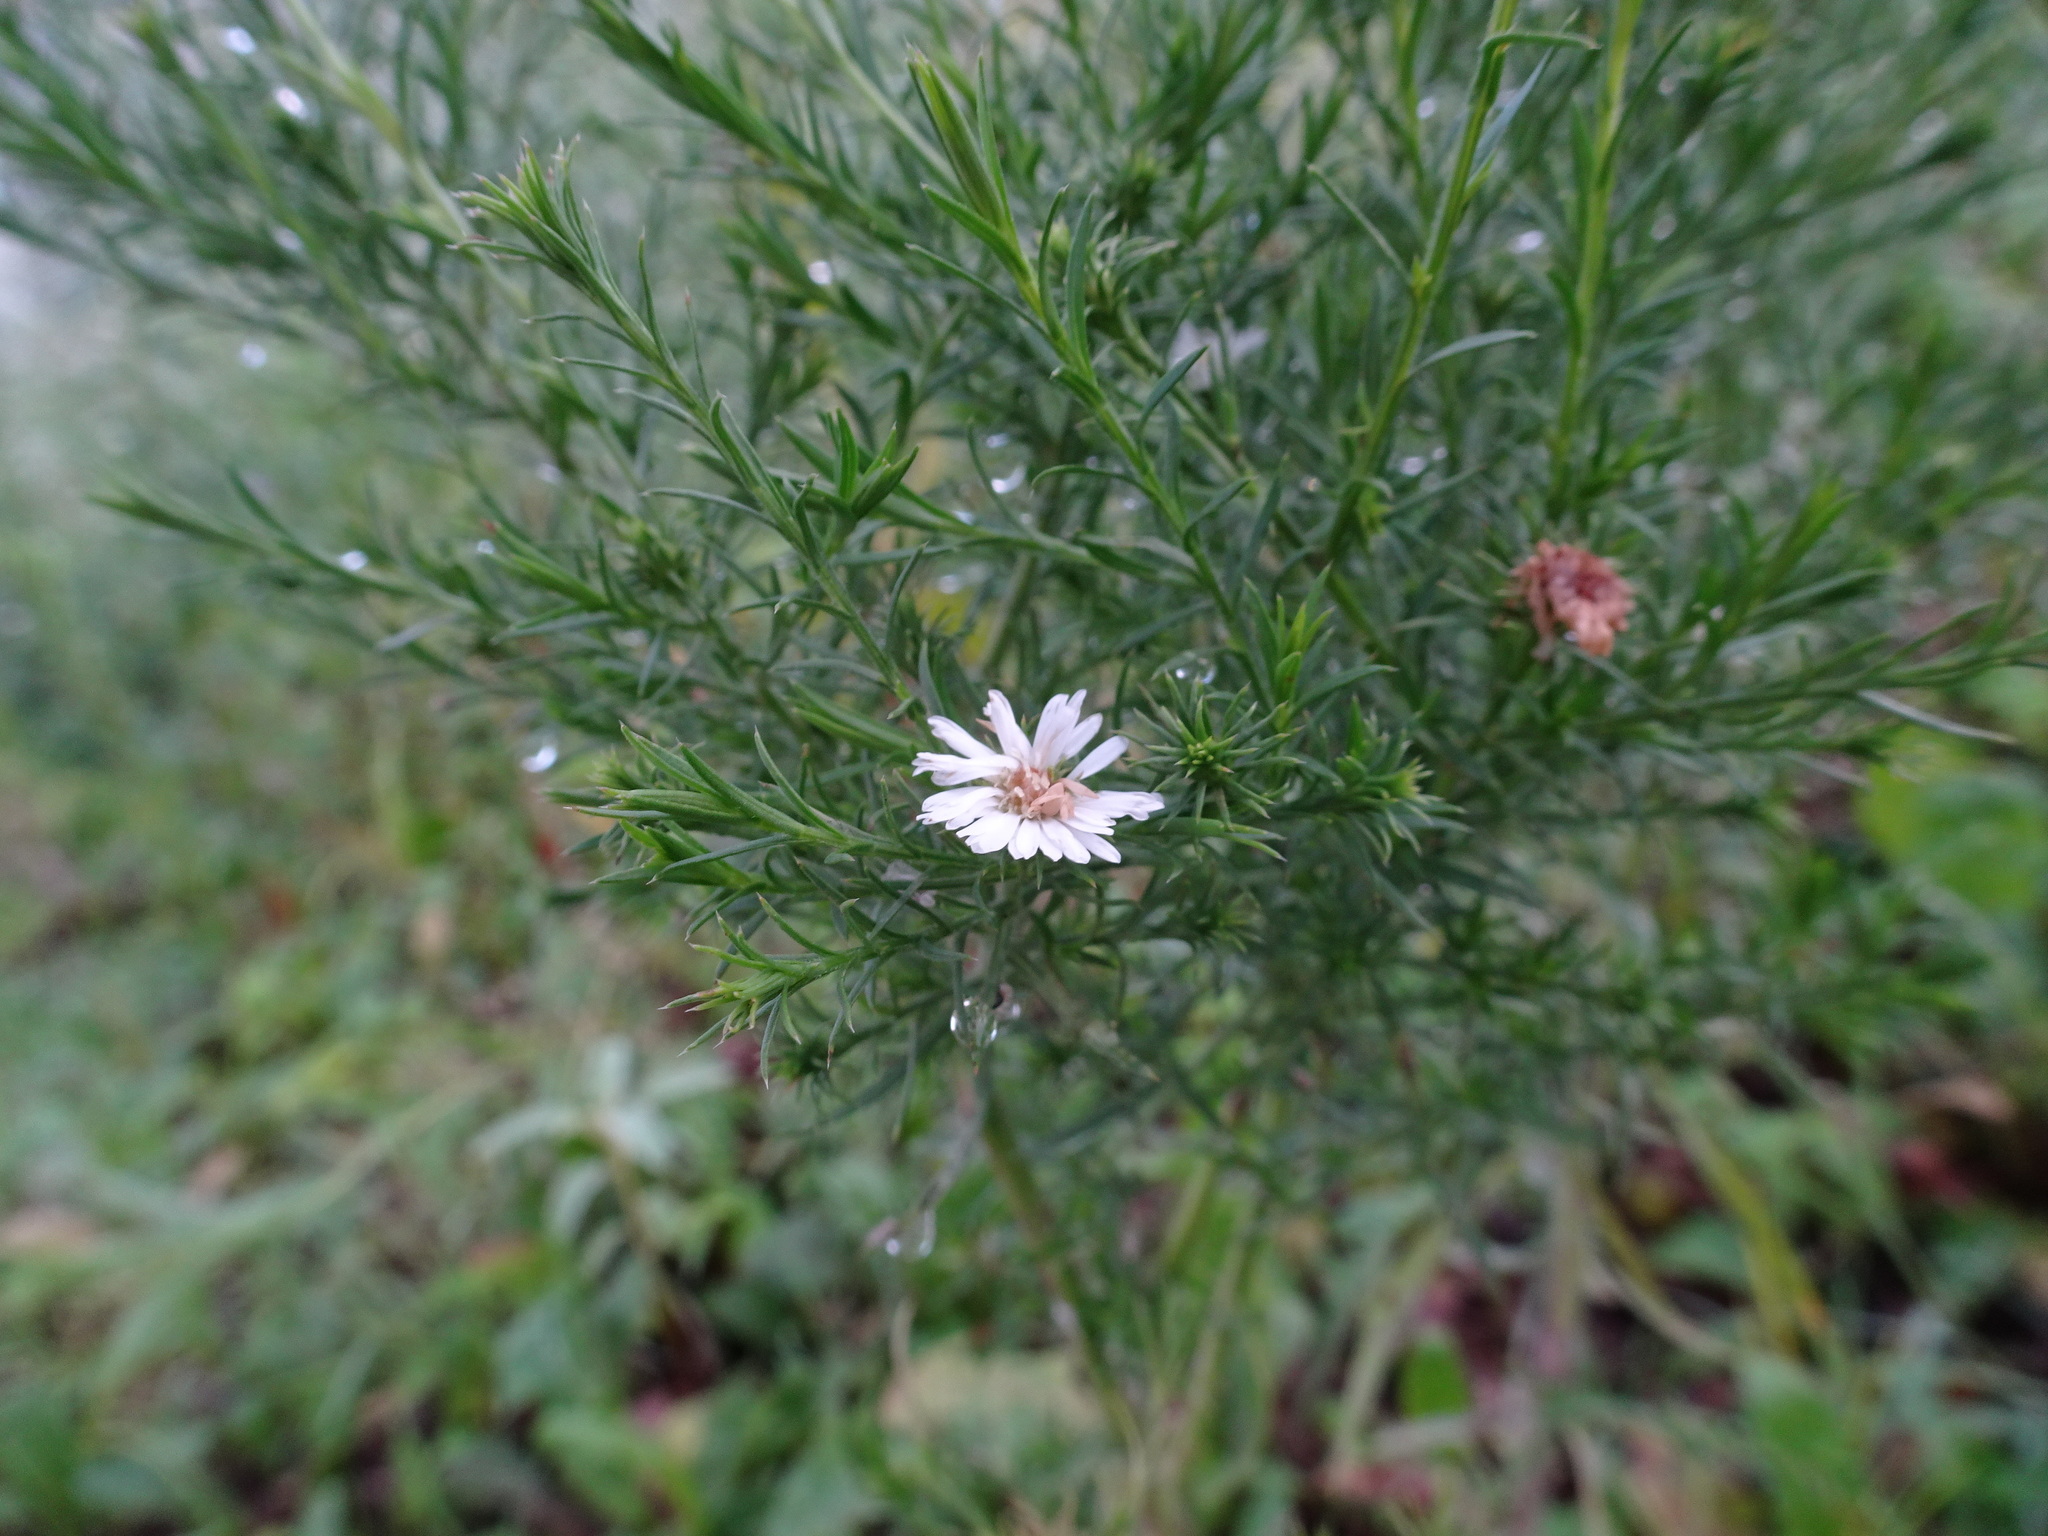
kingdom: Plantae
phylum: Tracheophyta
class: Magnoliopsida
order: Asterales
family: Asteraceae
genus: Symphyotrichum
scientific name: Symphyotrichum pilosum
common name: Awl aster
